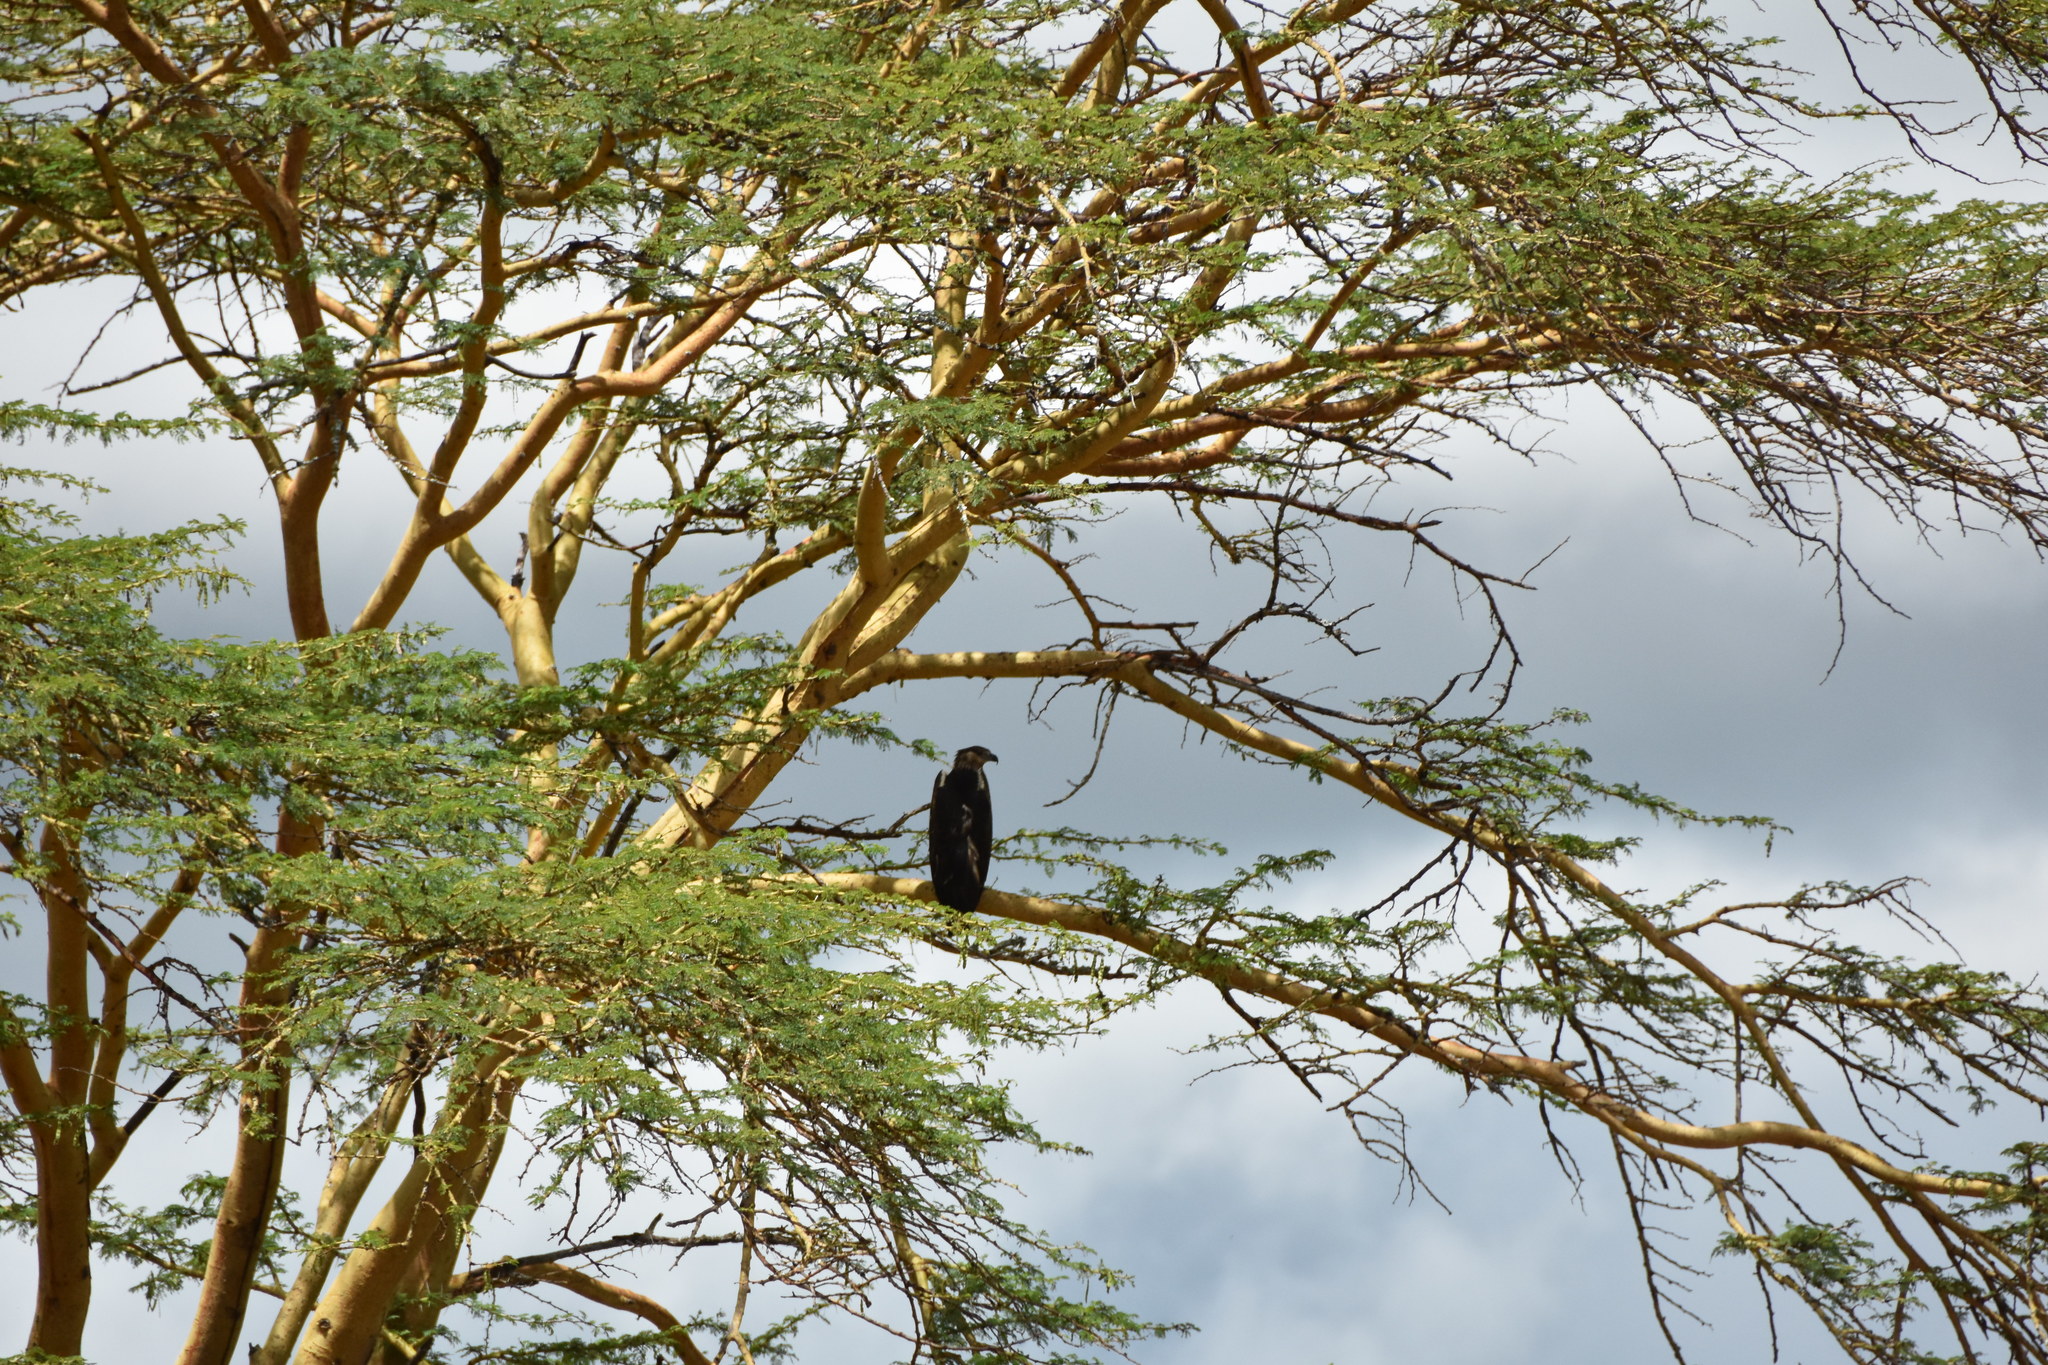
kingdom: Animalia
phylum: Chordata
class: Aves
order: Accipitriformes
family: Accipitridae
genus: Haliaeetus
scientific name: Haliaeetus vocifer
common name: African fish eagle
